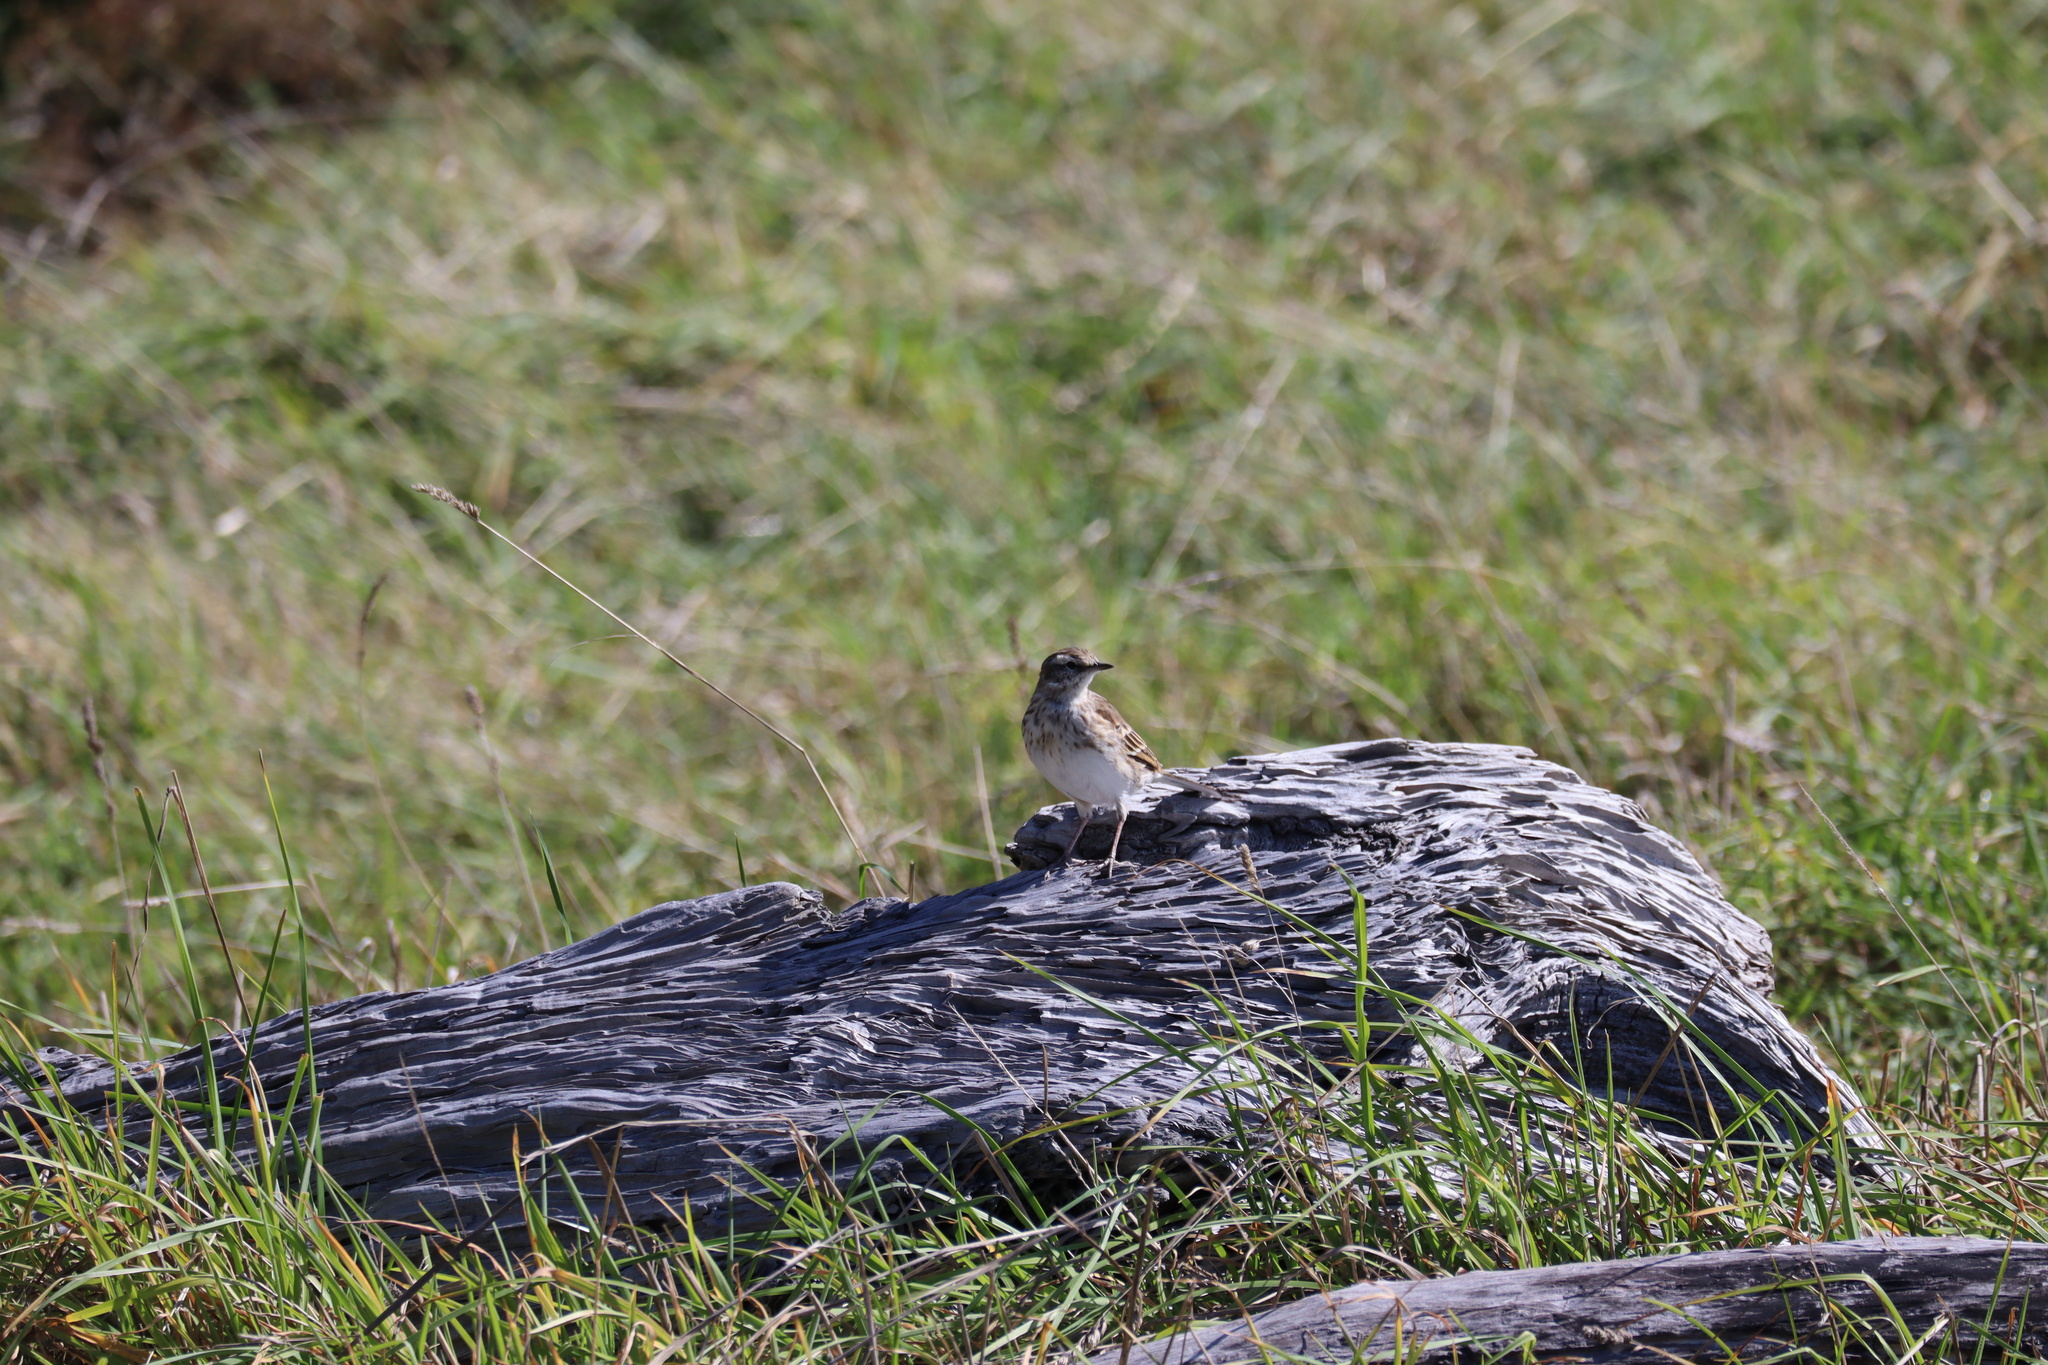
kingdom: Animalia
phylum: Chordata
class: Aves
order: Passeriformes
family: Motacillidae
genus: Anthus
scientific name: Anthus novaeseelandiae
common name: New zealand pipit
